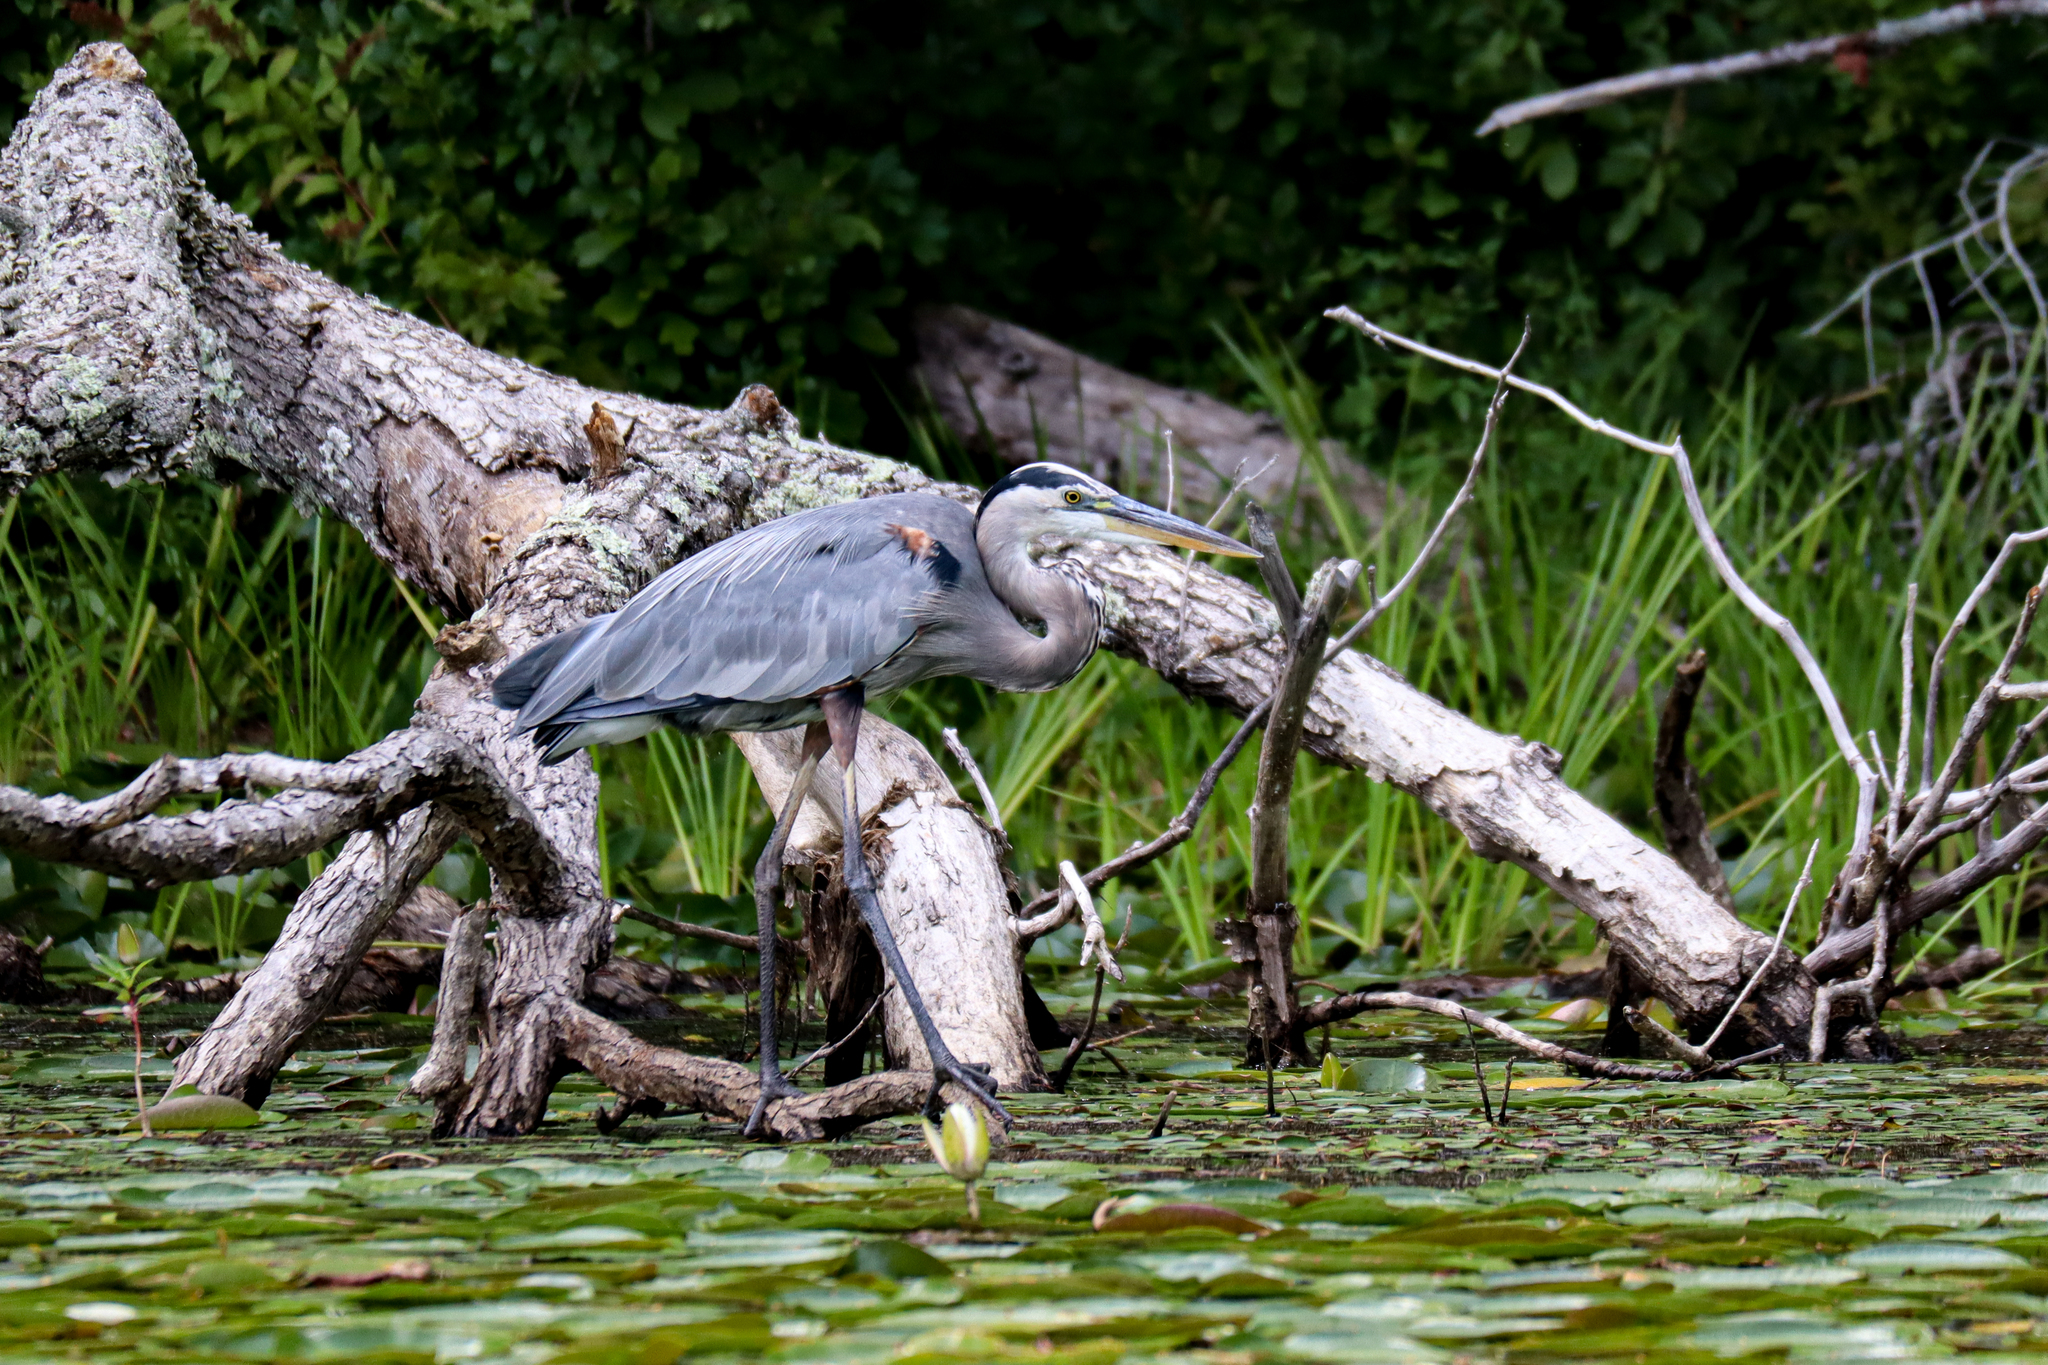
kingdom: Animalia
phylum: Chordata
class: Aves
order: Pelecaniformes
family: Ardeidae
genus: Ardea
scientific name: Ardea herodias
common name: Great blue heron
